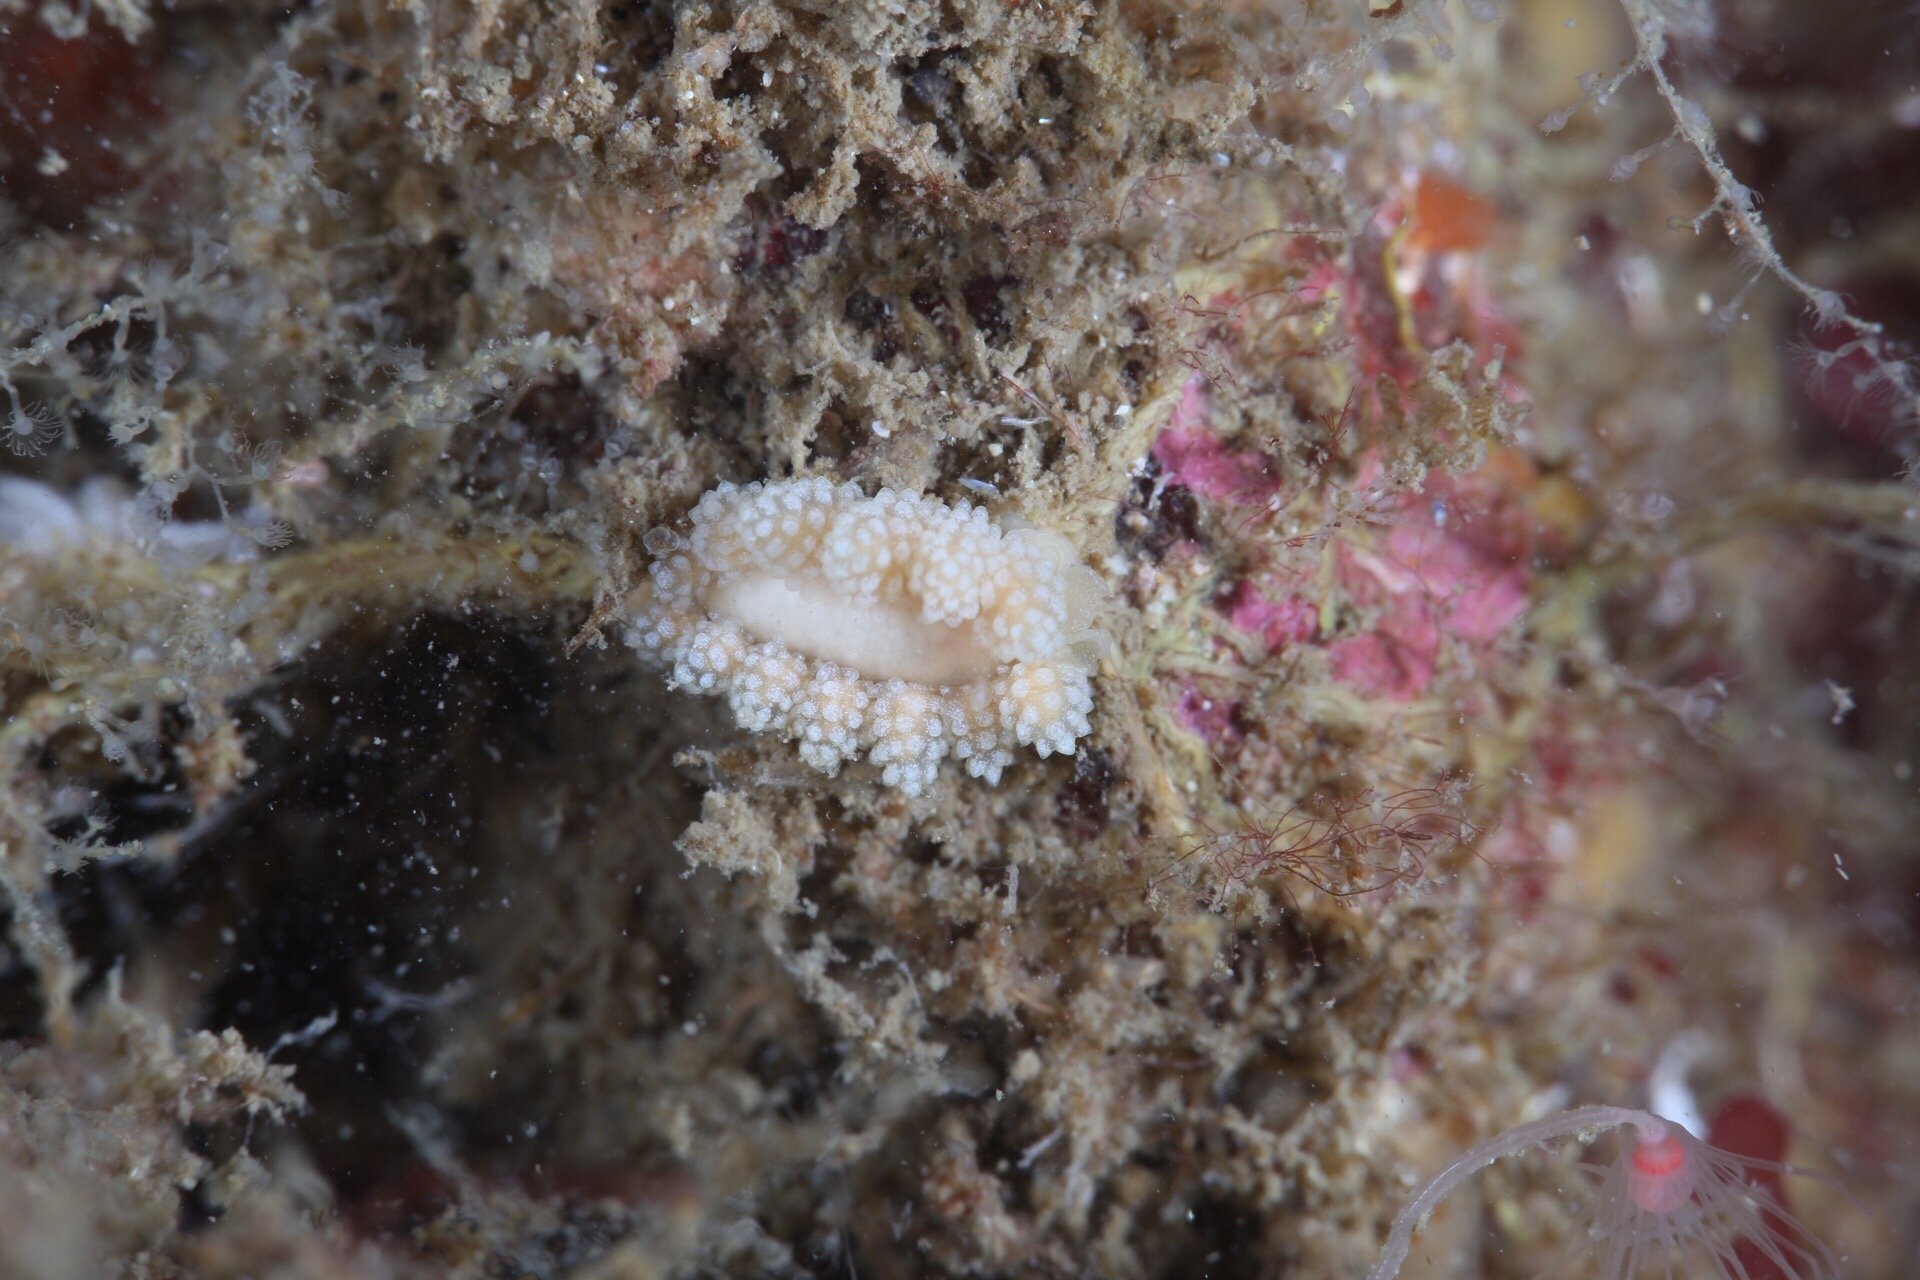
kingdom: Animalia
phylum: Mollusca
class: Gastropoda
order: Nudibranchia
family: Dotidae
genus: Doto
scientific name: Doto fragilis
